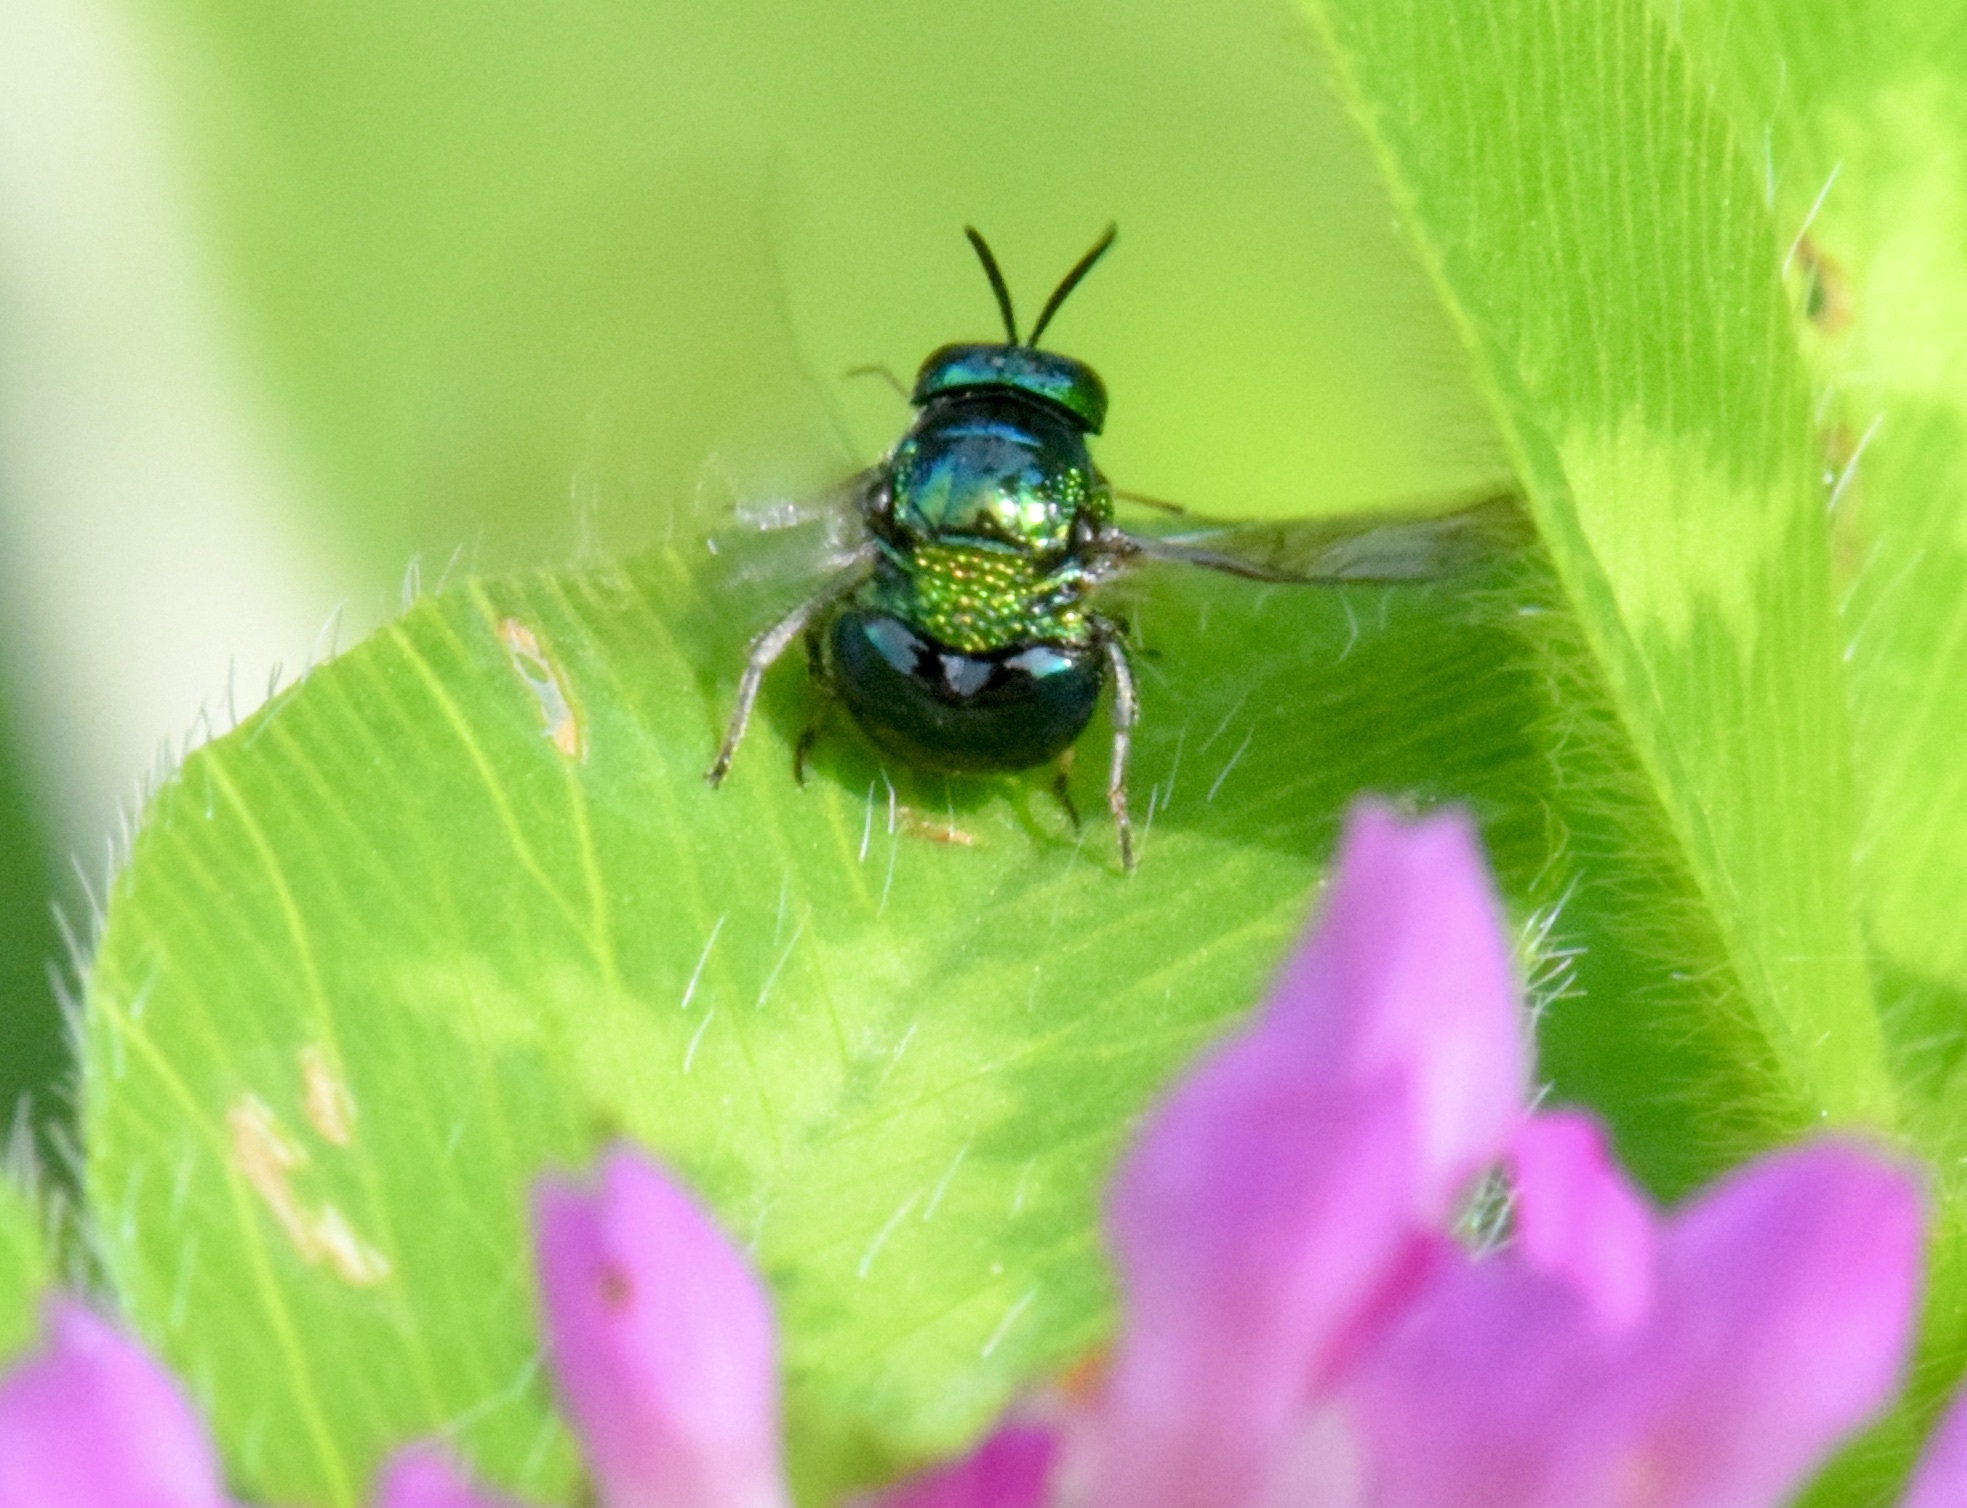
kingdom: Animalia
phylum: Arthropoda
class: Insecta
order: Hymenoptera
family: Chrysididae
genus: Muesebeckidium
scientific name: Muesebeckidium
